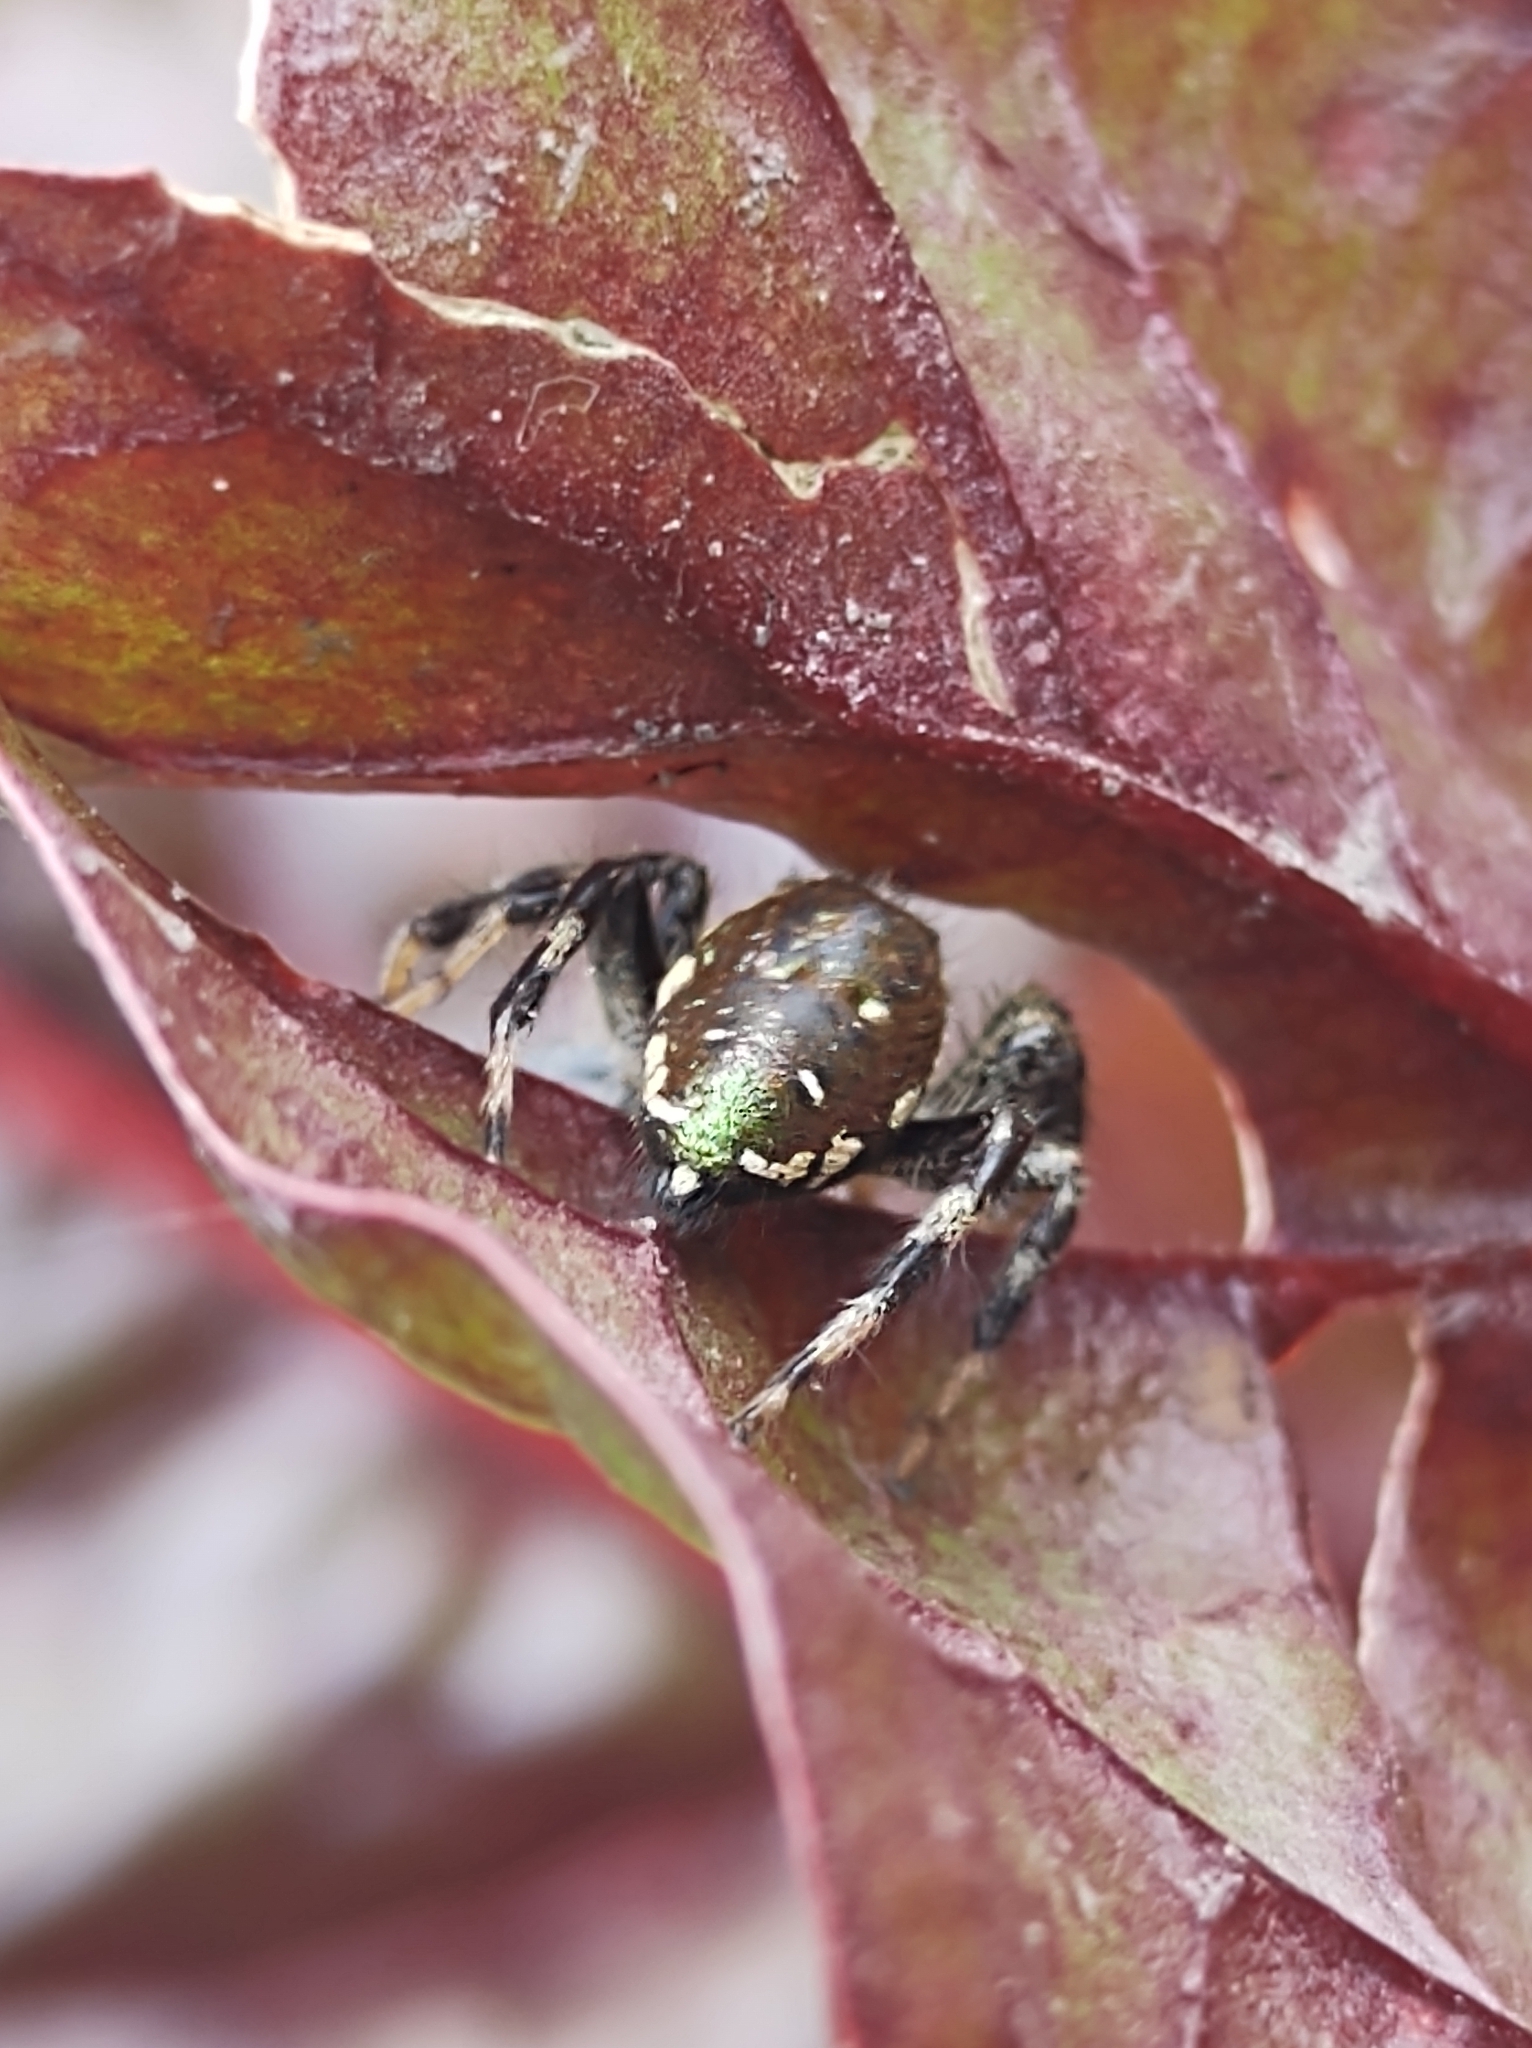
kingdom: Animalia
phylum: Arthropoda
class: Arachnida
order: Araneae
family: Salticidae
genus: Paraphidippus
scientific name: Paraphidippus aurantius
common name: Jumping spiders
